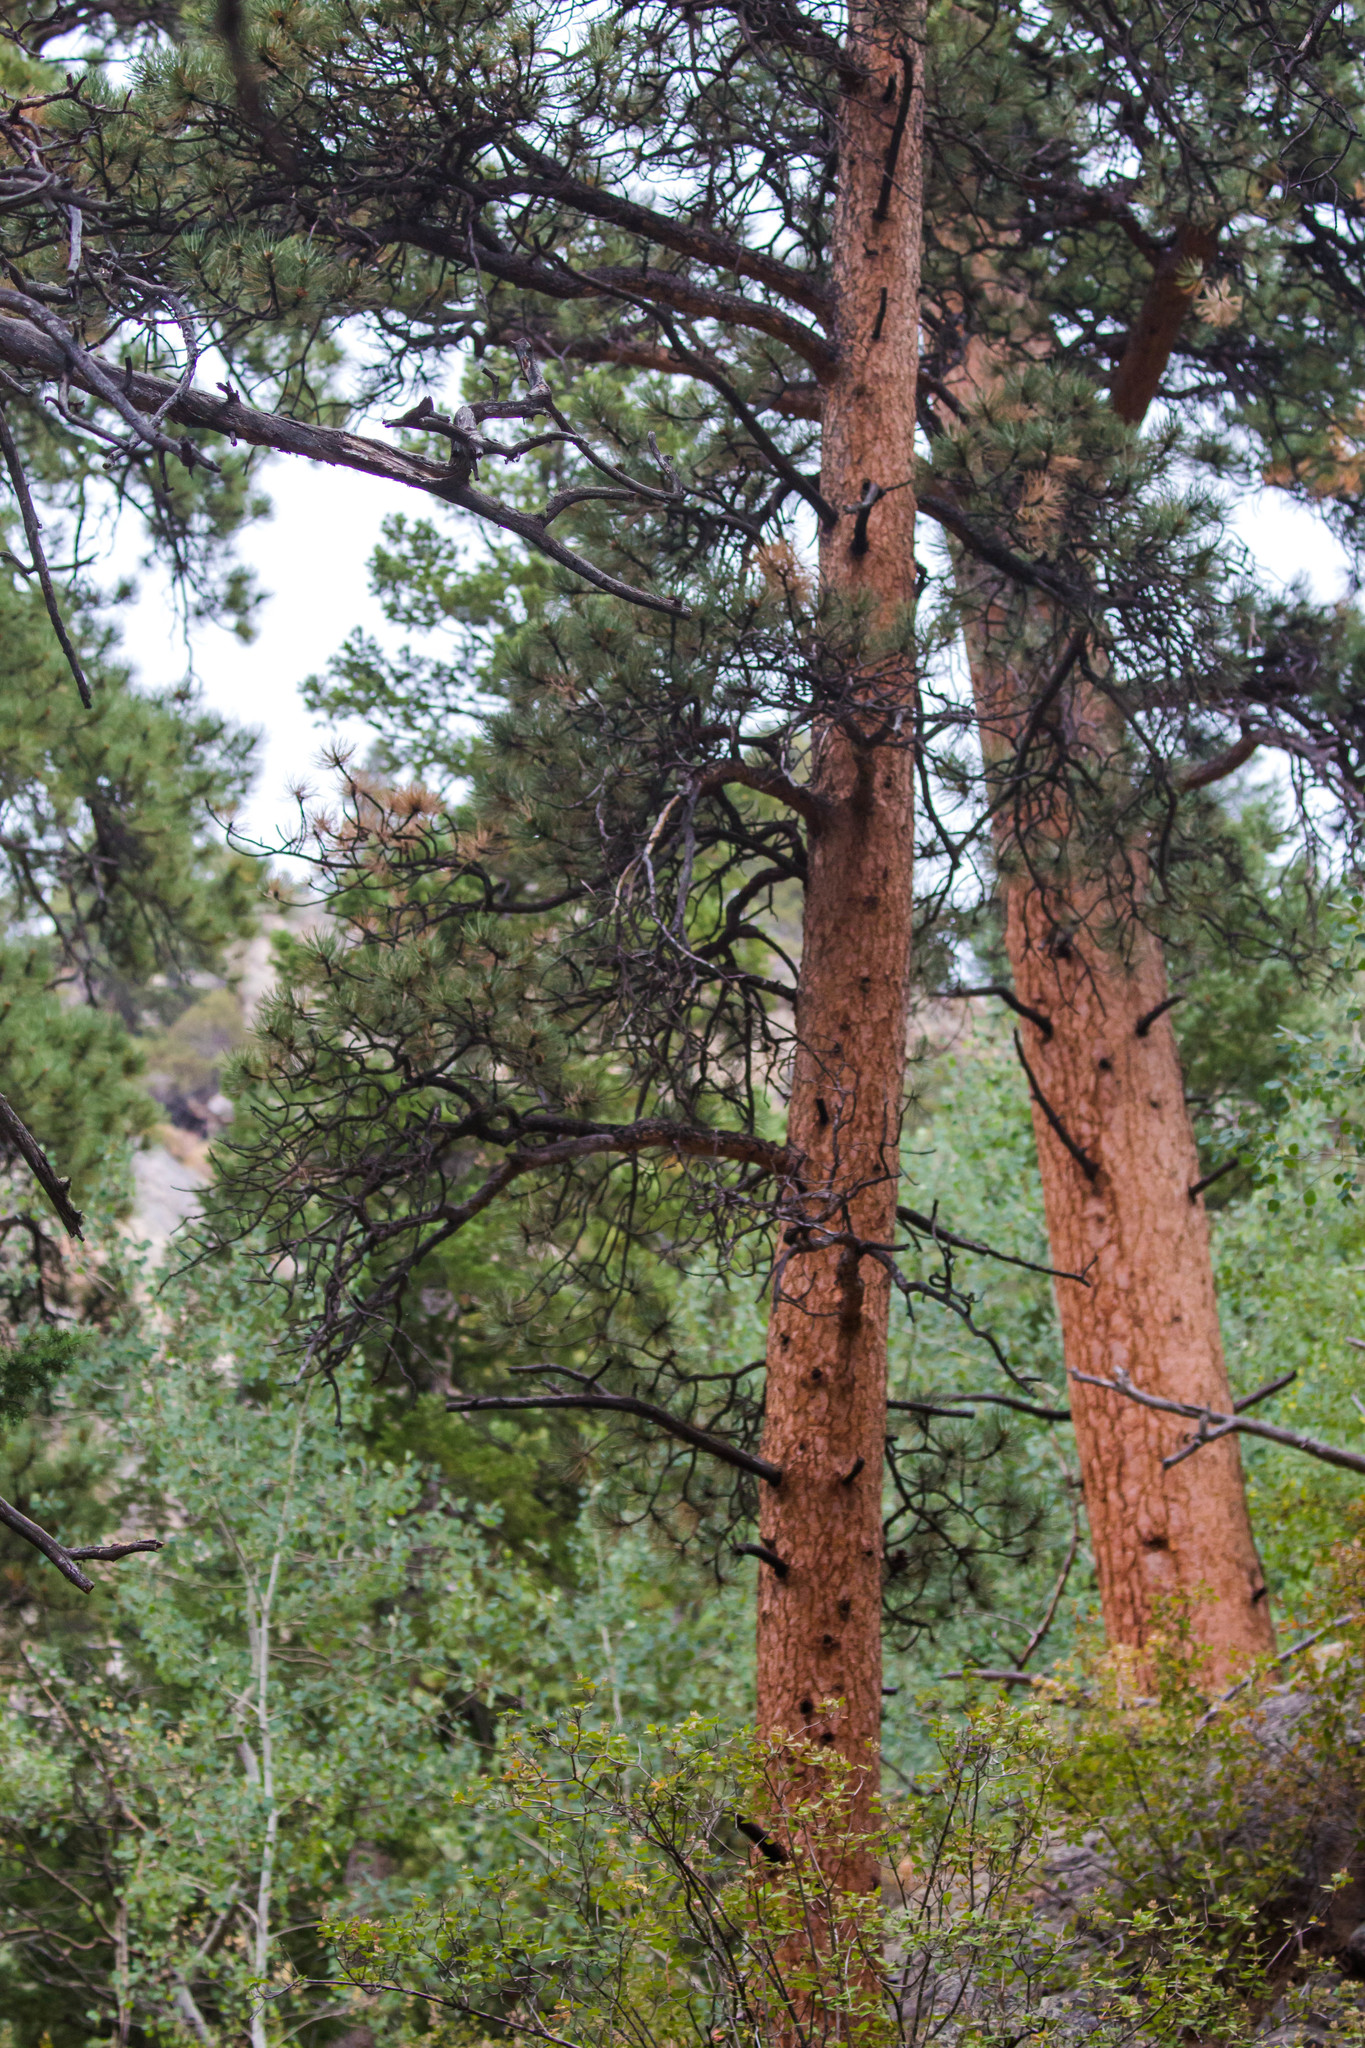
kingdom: Plantae
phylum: Tracheophyta
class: Pinopsida
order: Pinales
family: Pinaceae
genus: Pinus
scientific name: Pinus ponderosa
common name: Western yellow-pine
